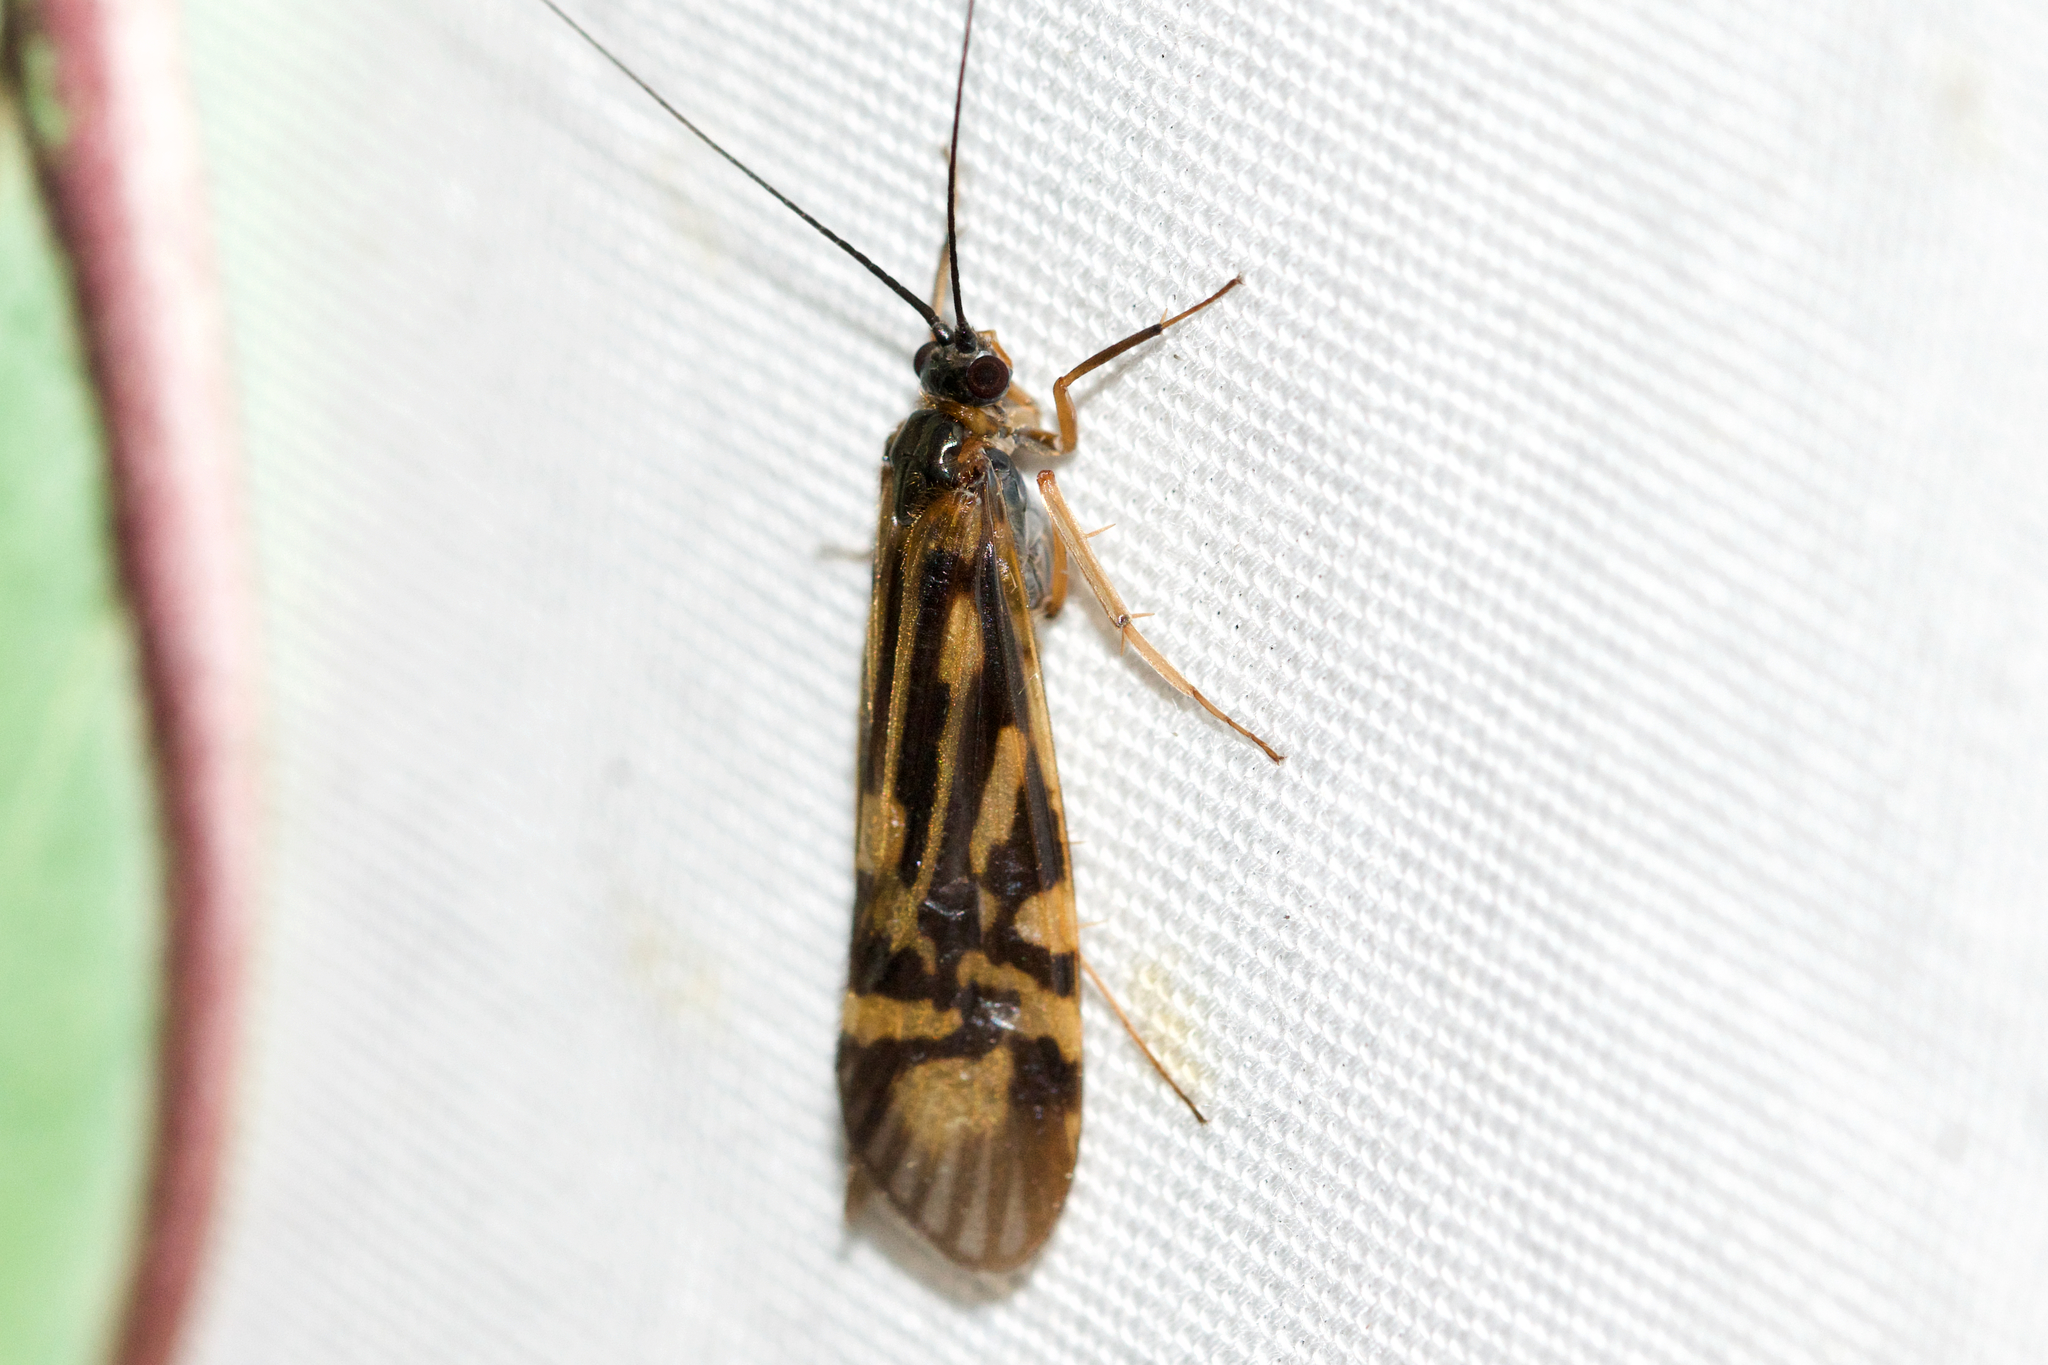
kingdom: Animalia
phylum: Arthropoda
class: Insecta
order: Trichoptera
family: Hydropsychidae
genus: Macrostemum
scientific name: Macrostemum zebratum
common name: Zebra caddisfly
